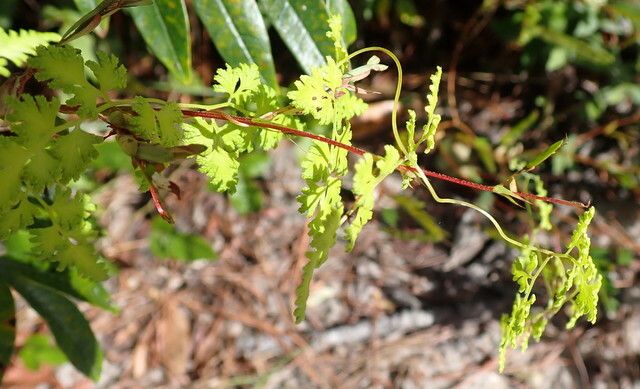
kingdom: Plantae
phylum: Tracheophyta
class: Polypodiopsida
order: Schizaeales
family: Lygodiaceae
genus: Lygodium
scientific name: Lygodium japonicum
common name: Japanese climbing fern
